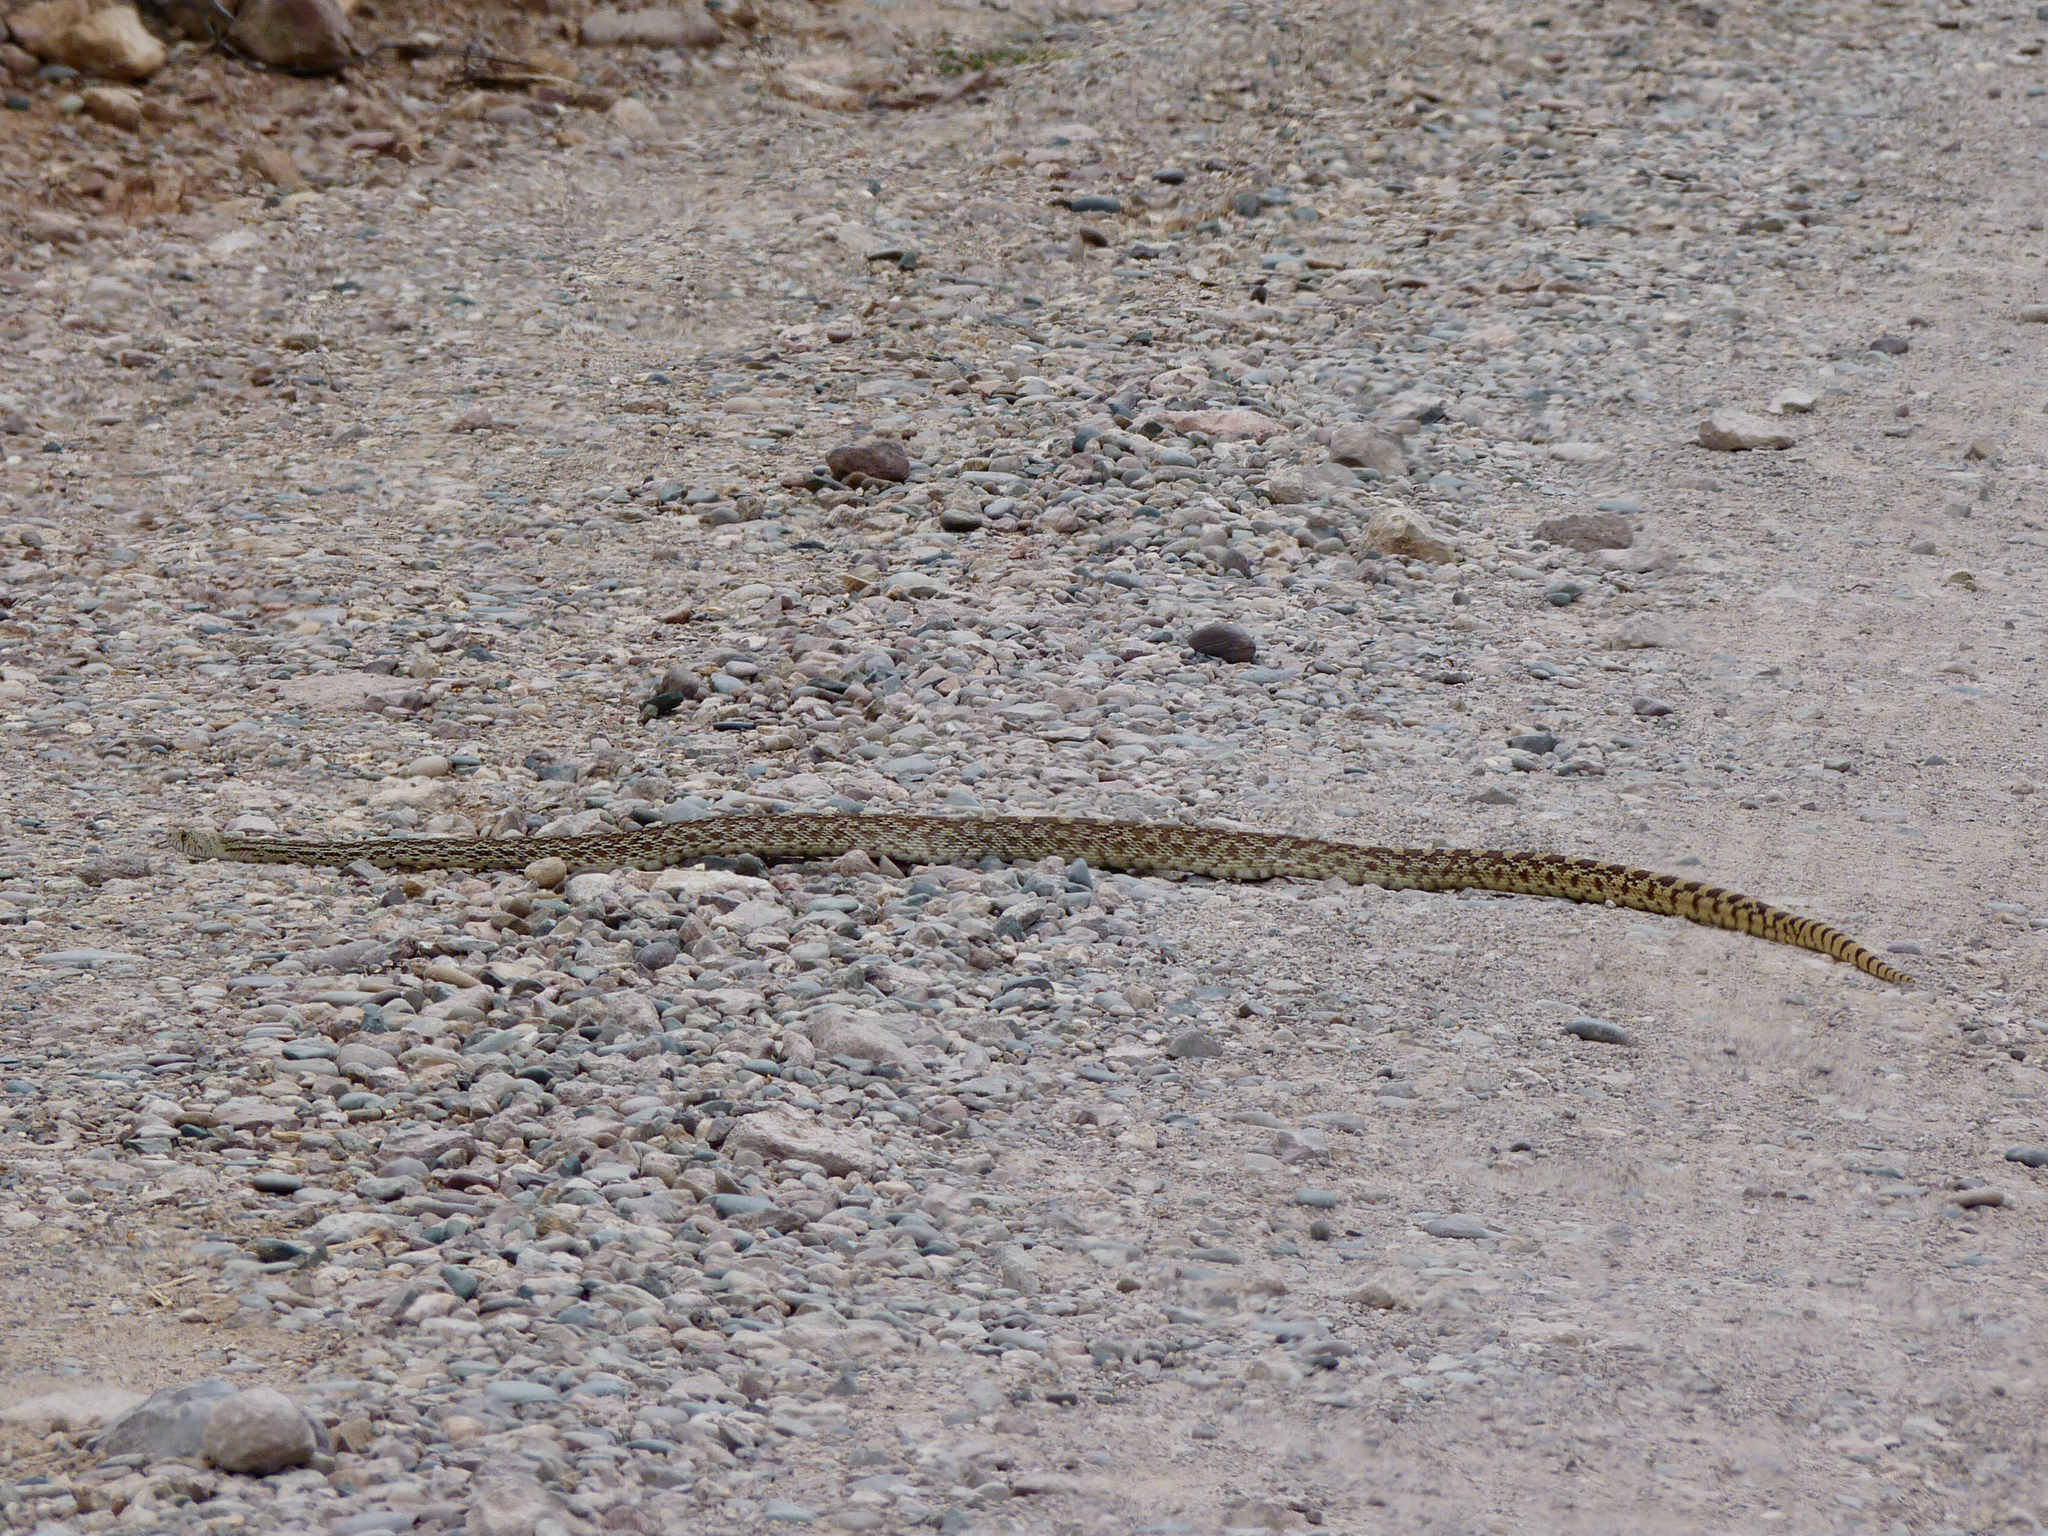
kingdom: Animalia
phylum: Chordata
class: Squamata
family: Colubridae
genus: Pituophis
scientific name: Pituophis catenifer
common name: Gopher snake
